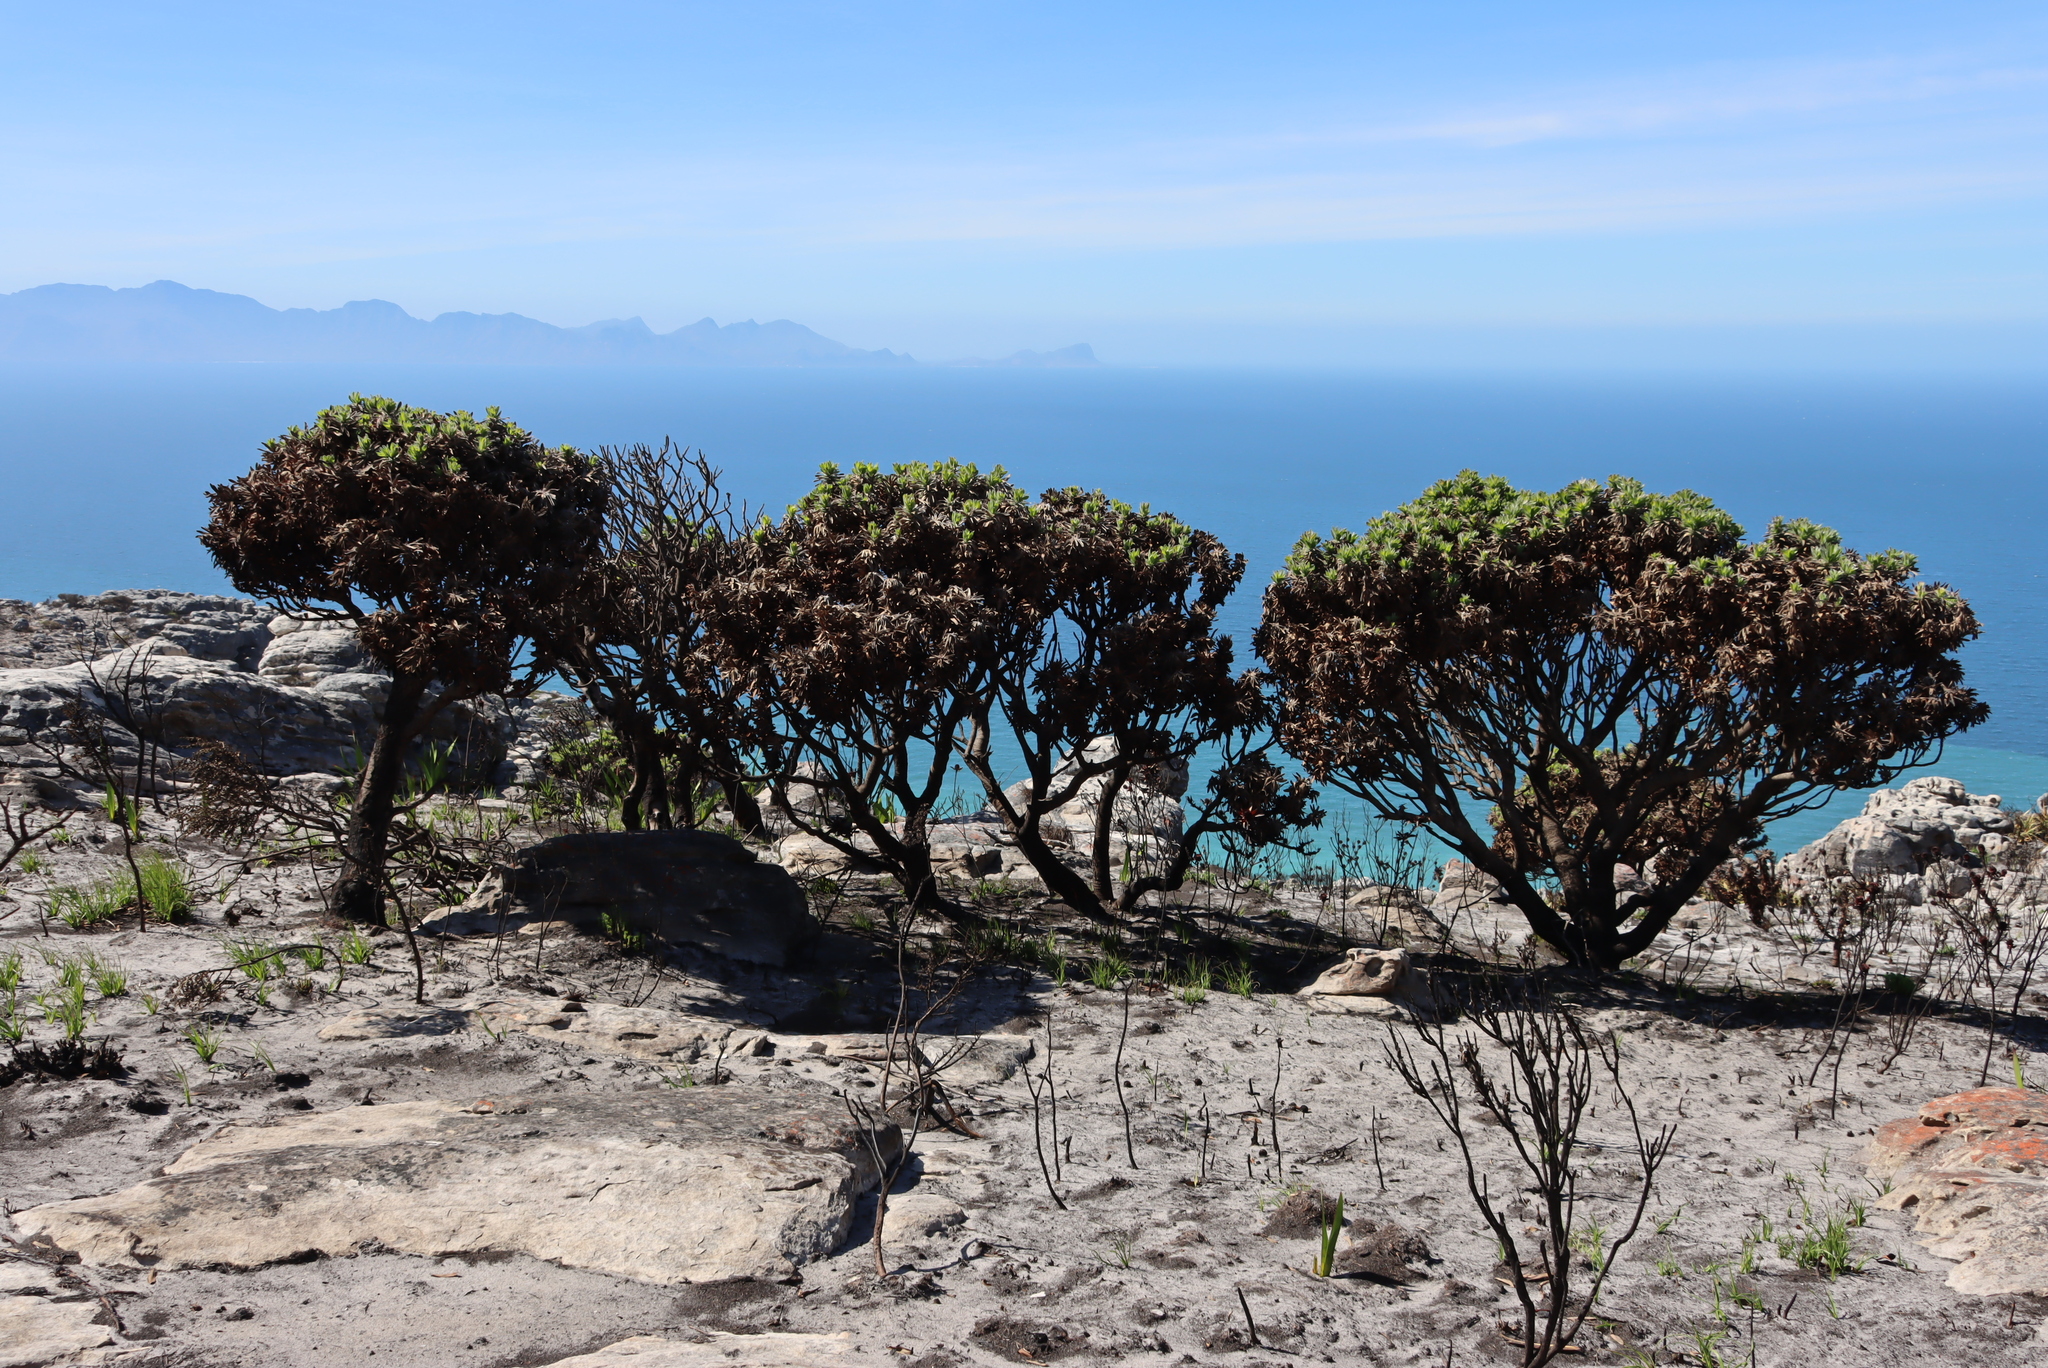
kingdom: Plantae
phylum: Tracheophyta
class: Magnoliopsida
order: Proteales
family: Proteaceae
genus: Mimetes
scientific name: Mimetes fimbriifolius
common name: Fringed bottlebrush
